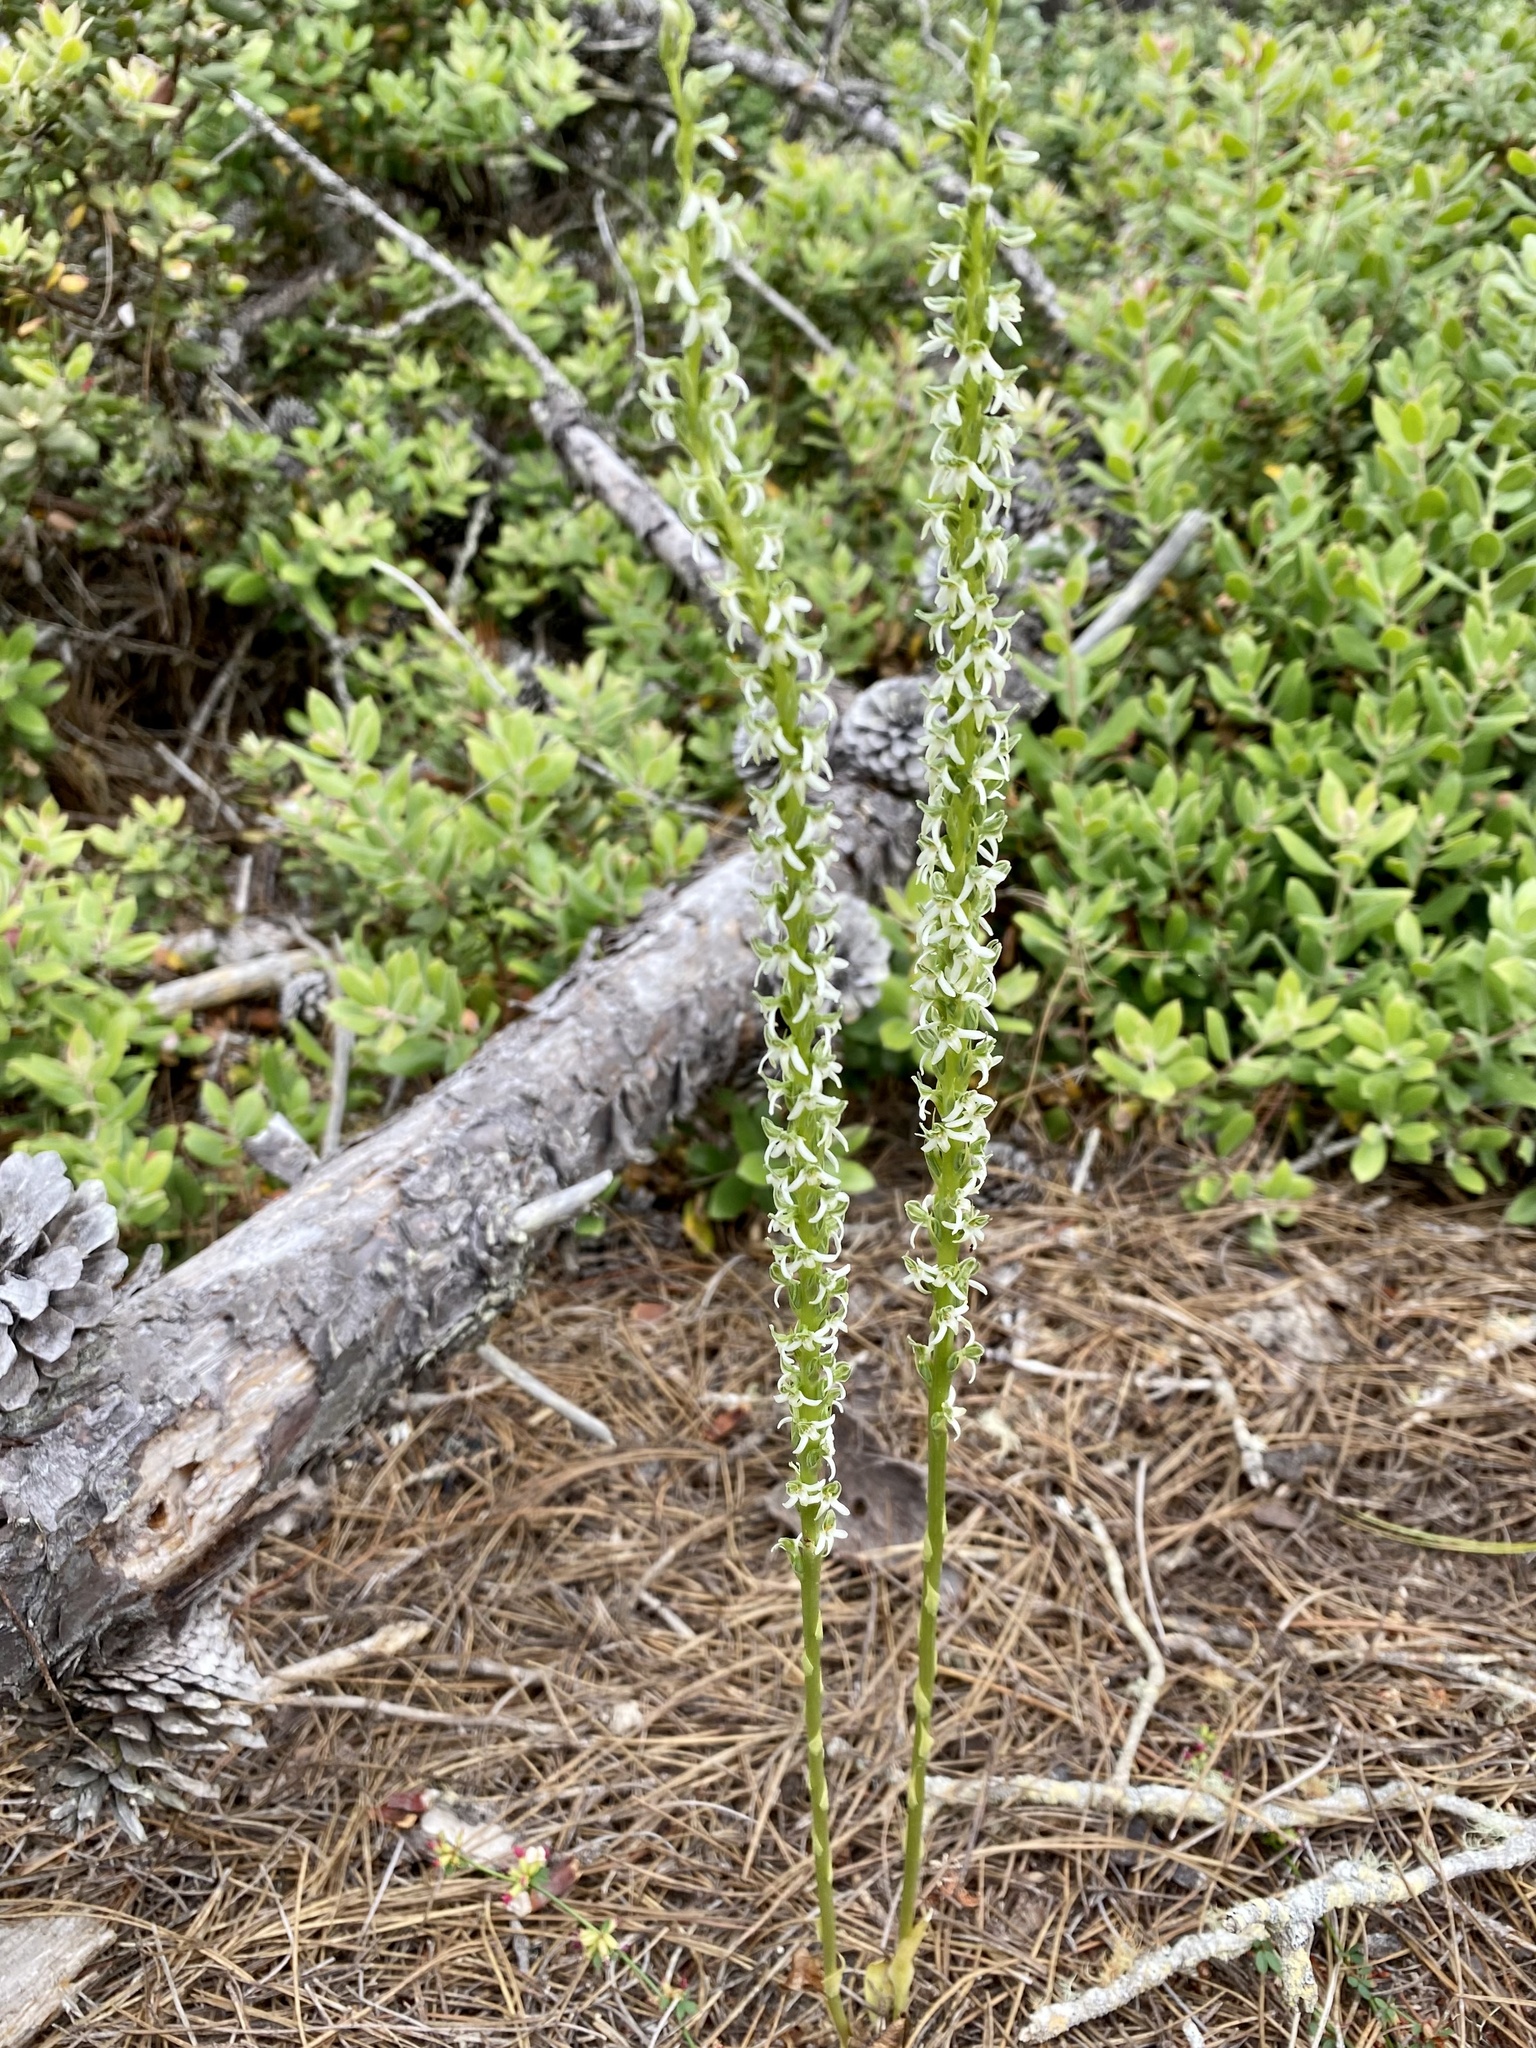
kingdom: Plantae
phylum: Tracheophyta
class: Liliopsida
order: Asparagales
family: Orchidaceae
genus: Platanthera
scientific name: Platanthera yadonii
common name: Yadon’s piperia
